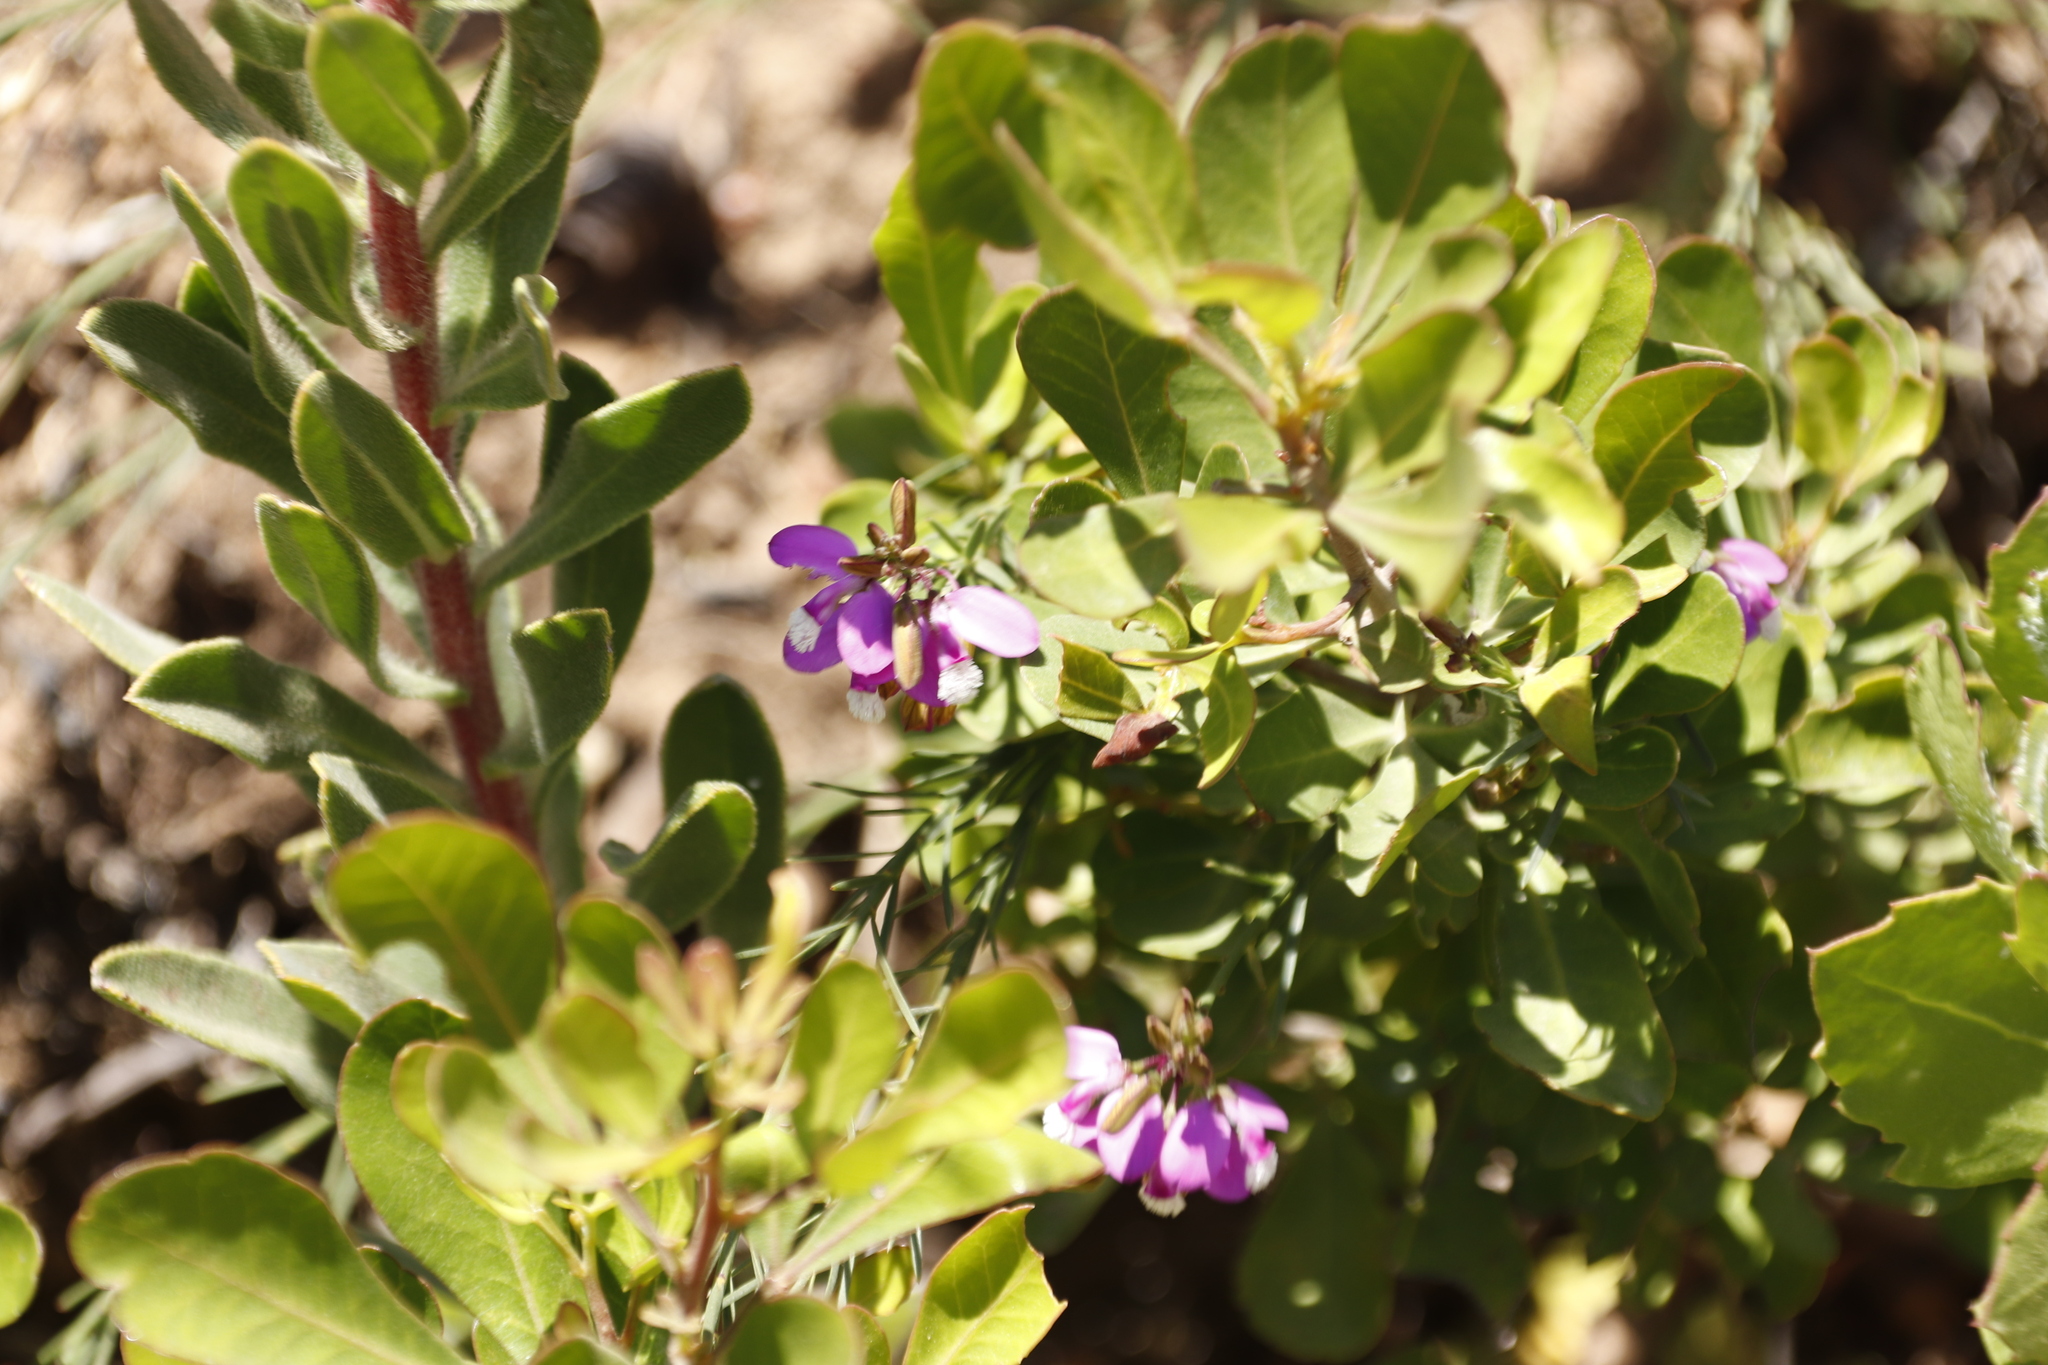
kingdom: Plantae
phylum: Tracheophyta
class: Magnoliopsida
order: Fabales
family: Polygalaceae
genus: Polygala
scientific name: Polygala garcini
